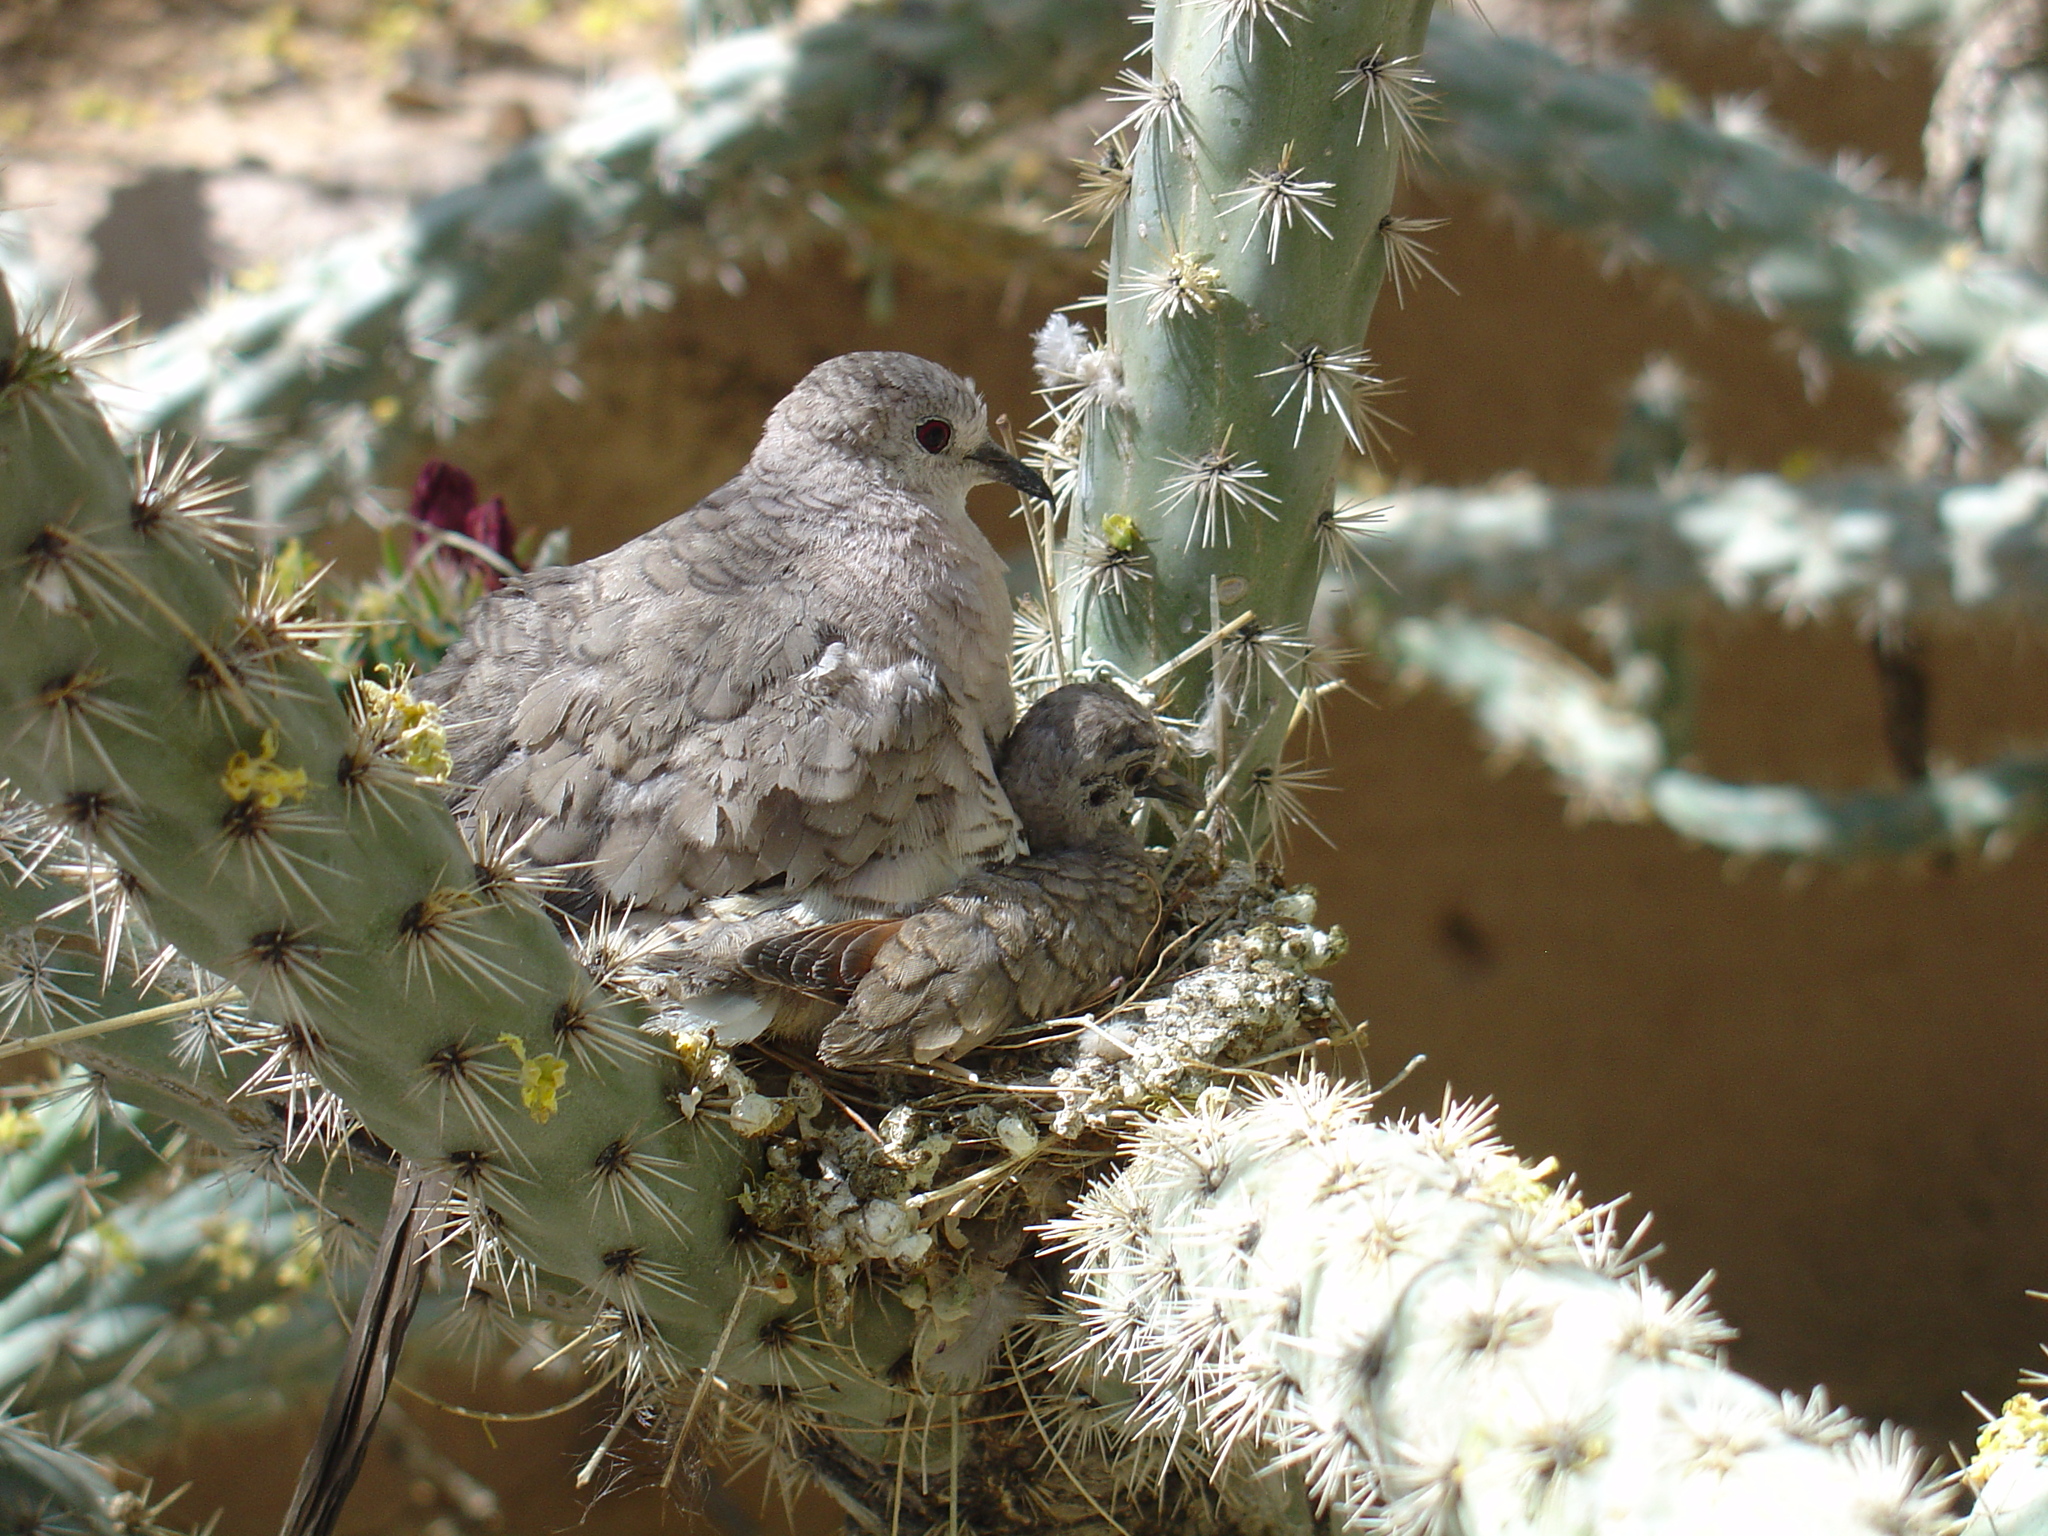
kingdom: Animalia
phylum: Chordata
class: Aves
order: Columbiformes
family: Columbidae
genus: Columbina
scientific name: Columbina inca
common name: Inca dove
